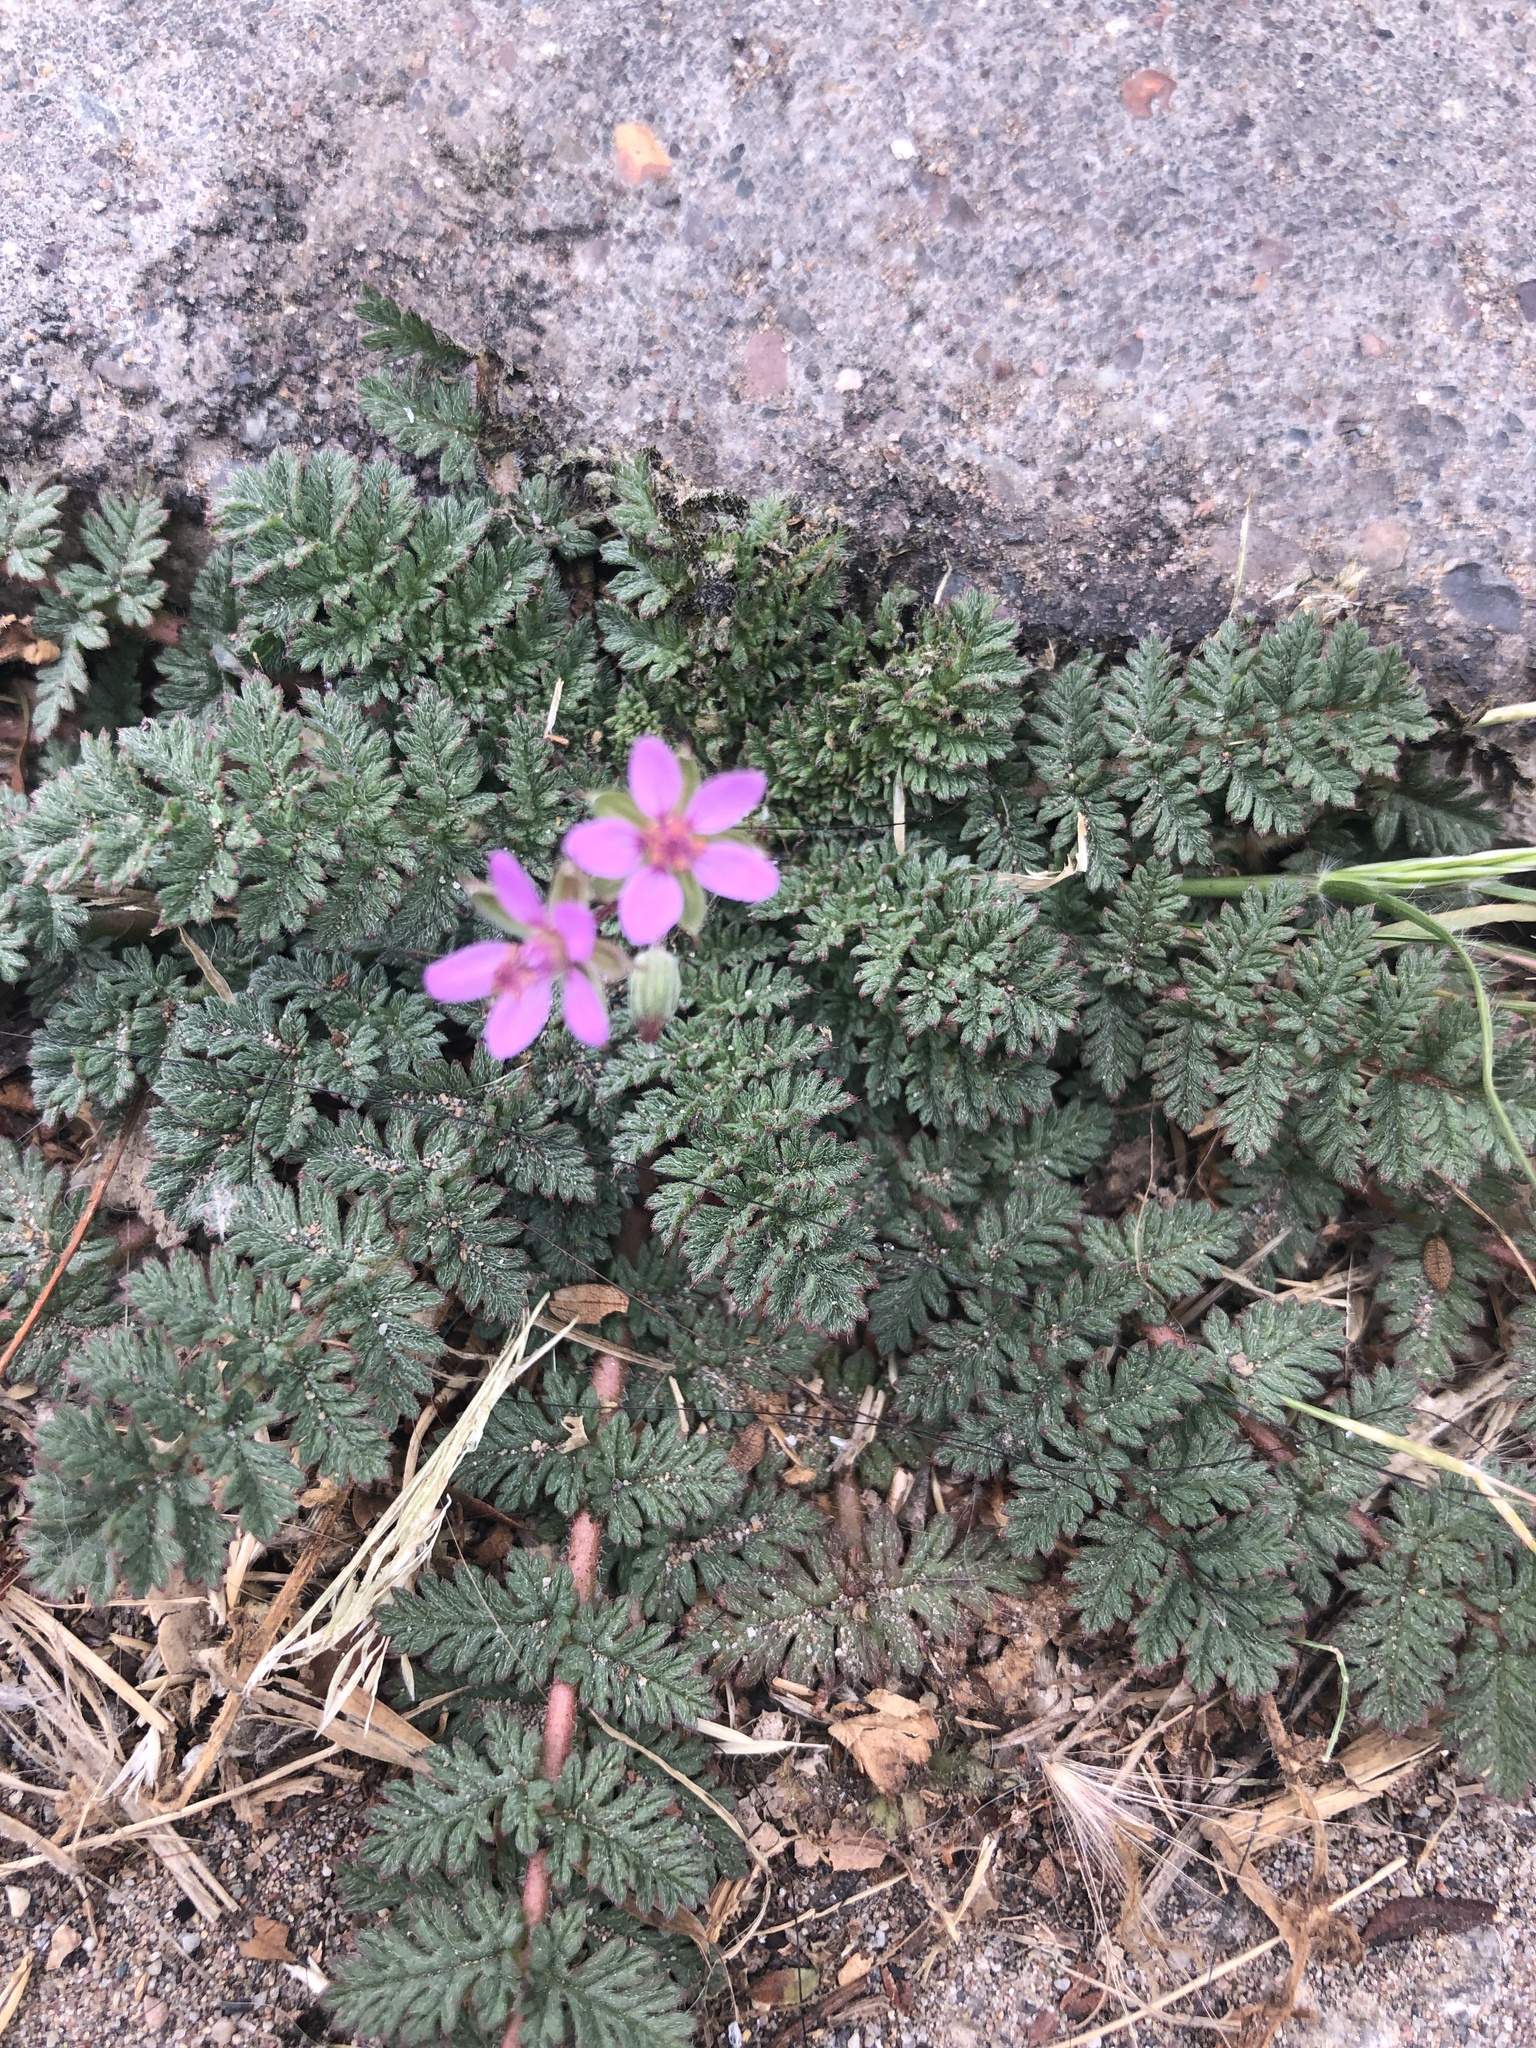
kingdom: Plantae
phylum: Tracheophyta
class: Magnoliopsida
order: Geraniales
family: Geraniaceae
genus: Erodium
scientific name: Erodium cicutarium
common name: Common stork's-bill
